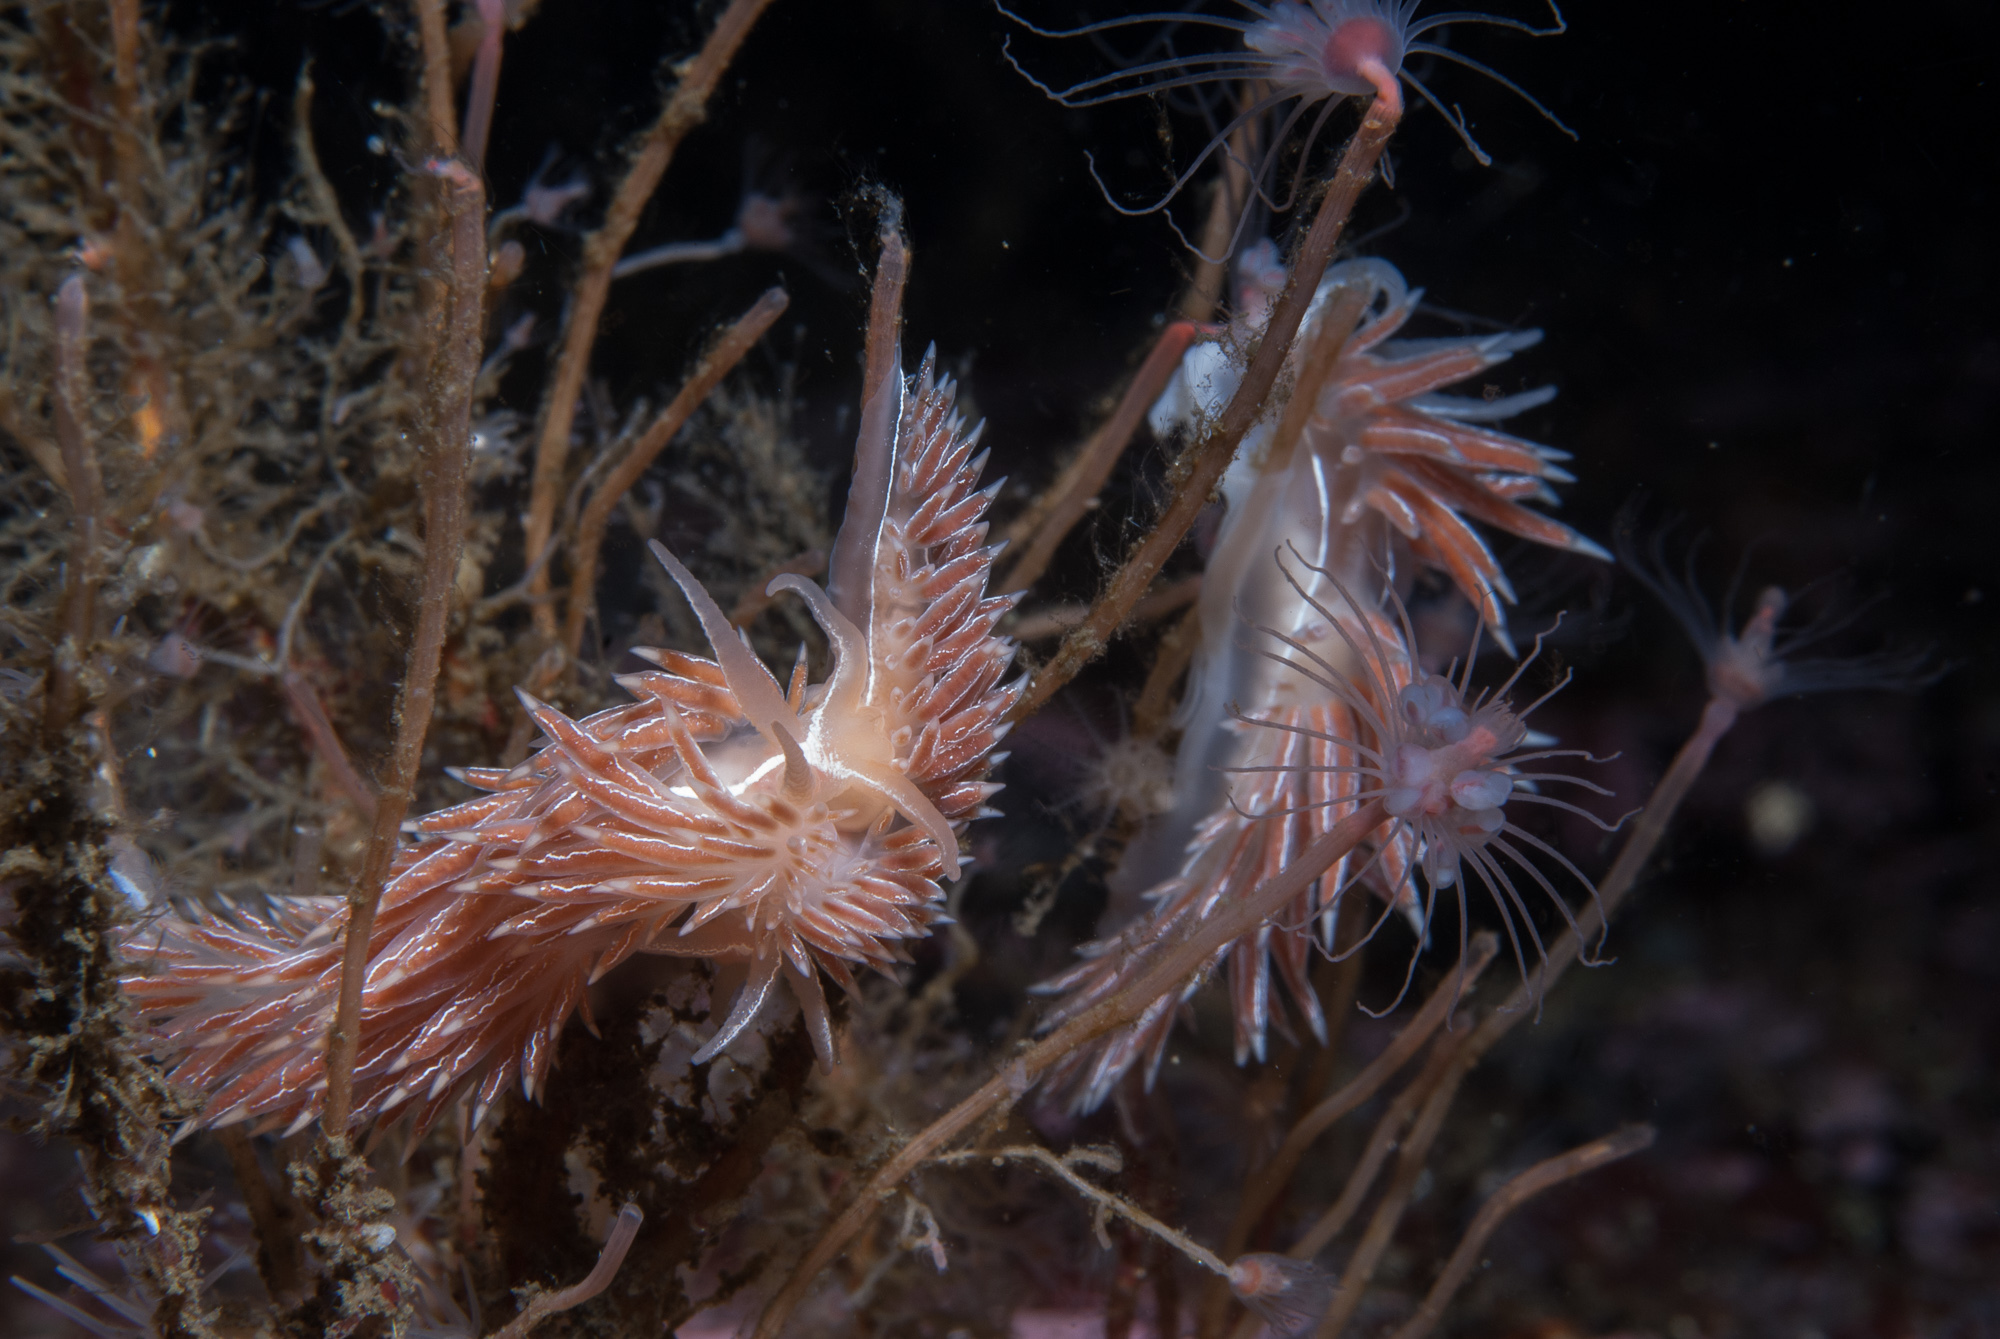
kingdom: Animalia
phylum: Mollusca
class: Gastropoda
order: Nudibranchia
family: Coryphellidae
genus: Coryphella
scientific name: Coryphella chriskaugei
